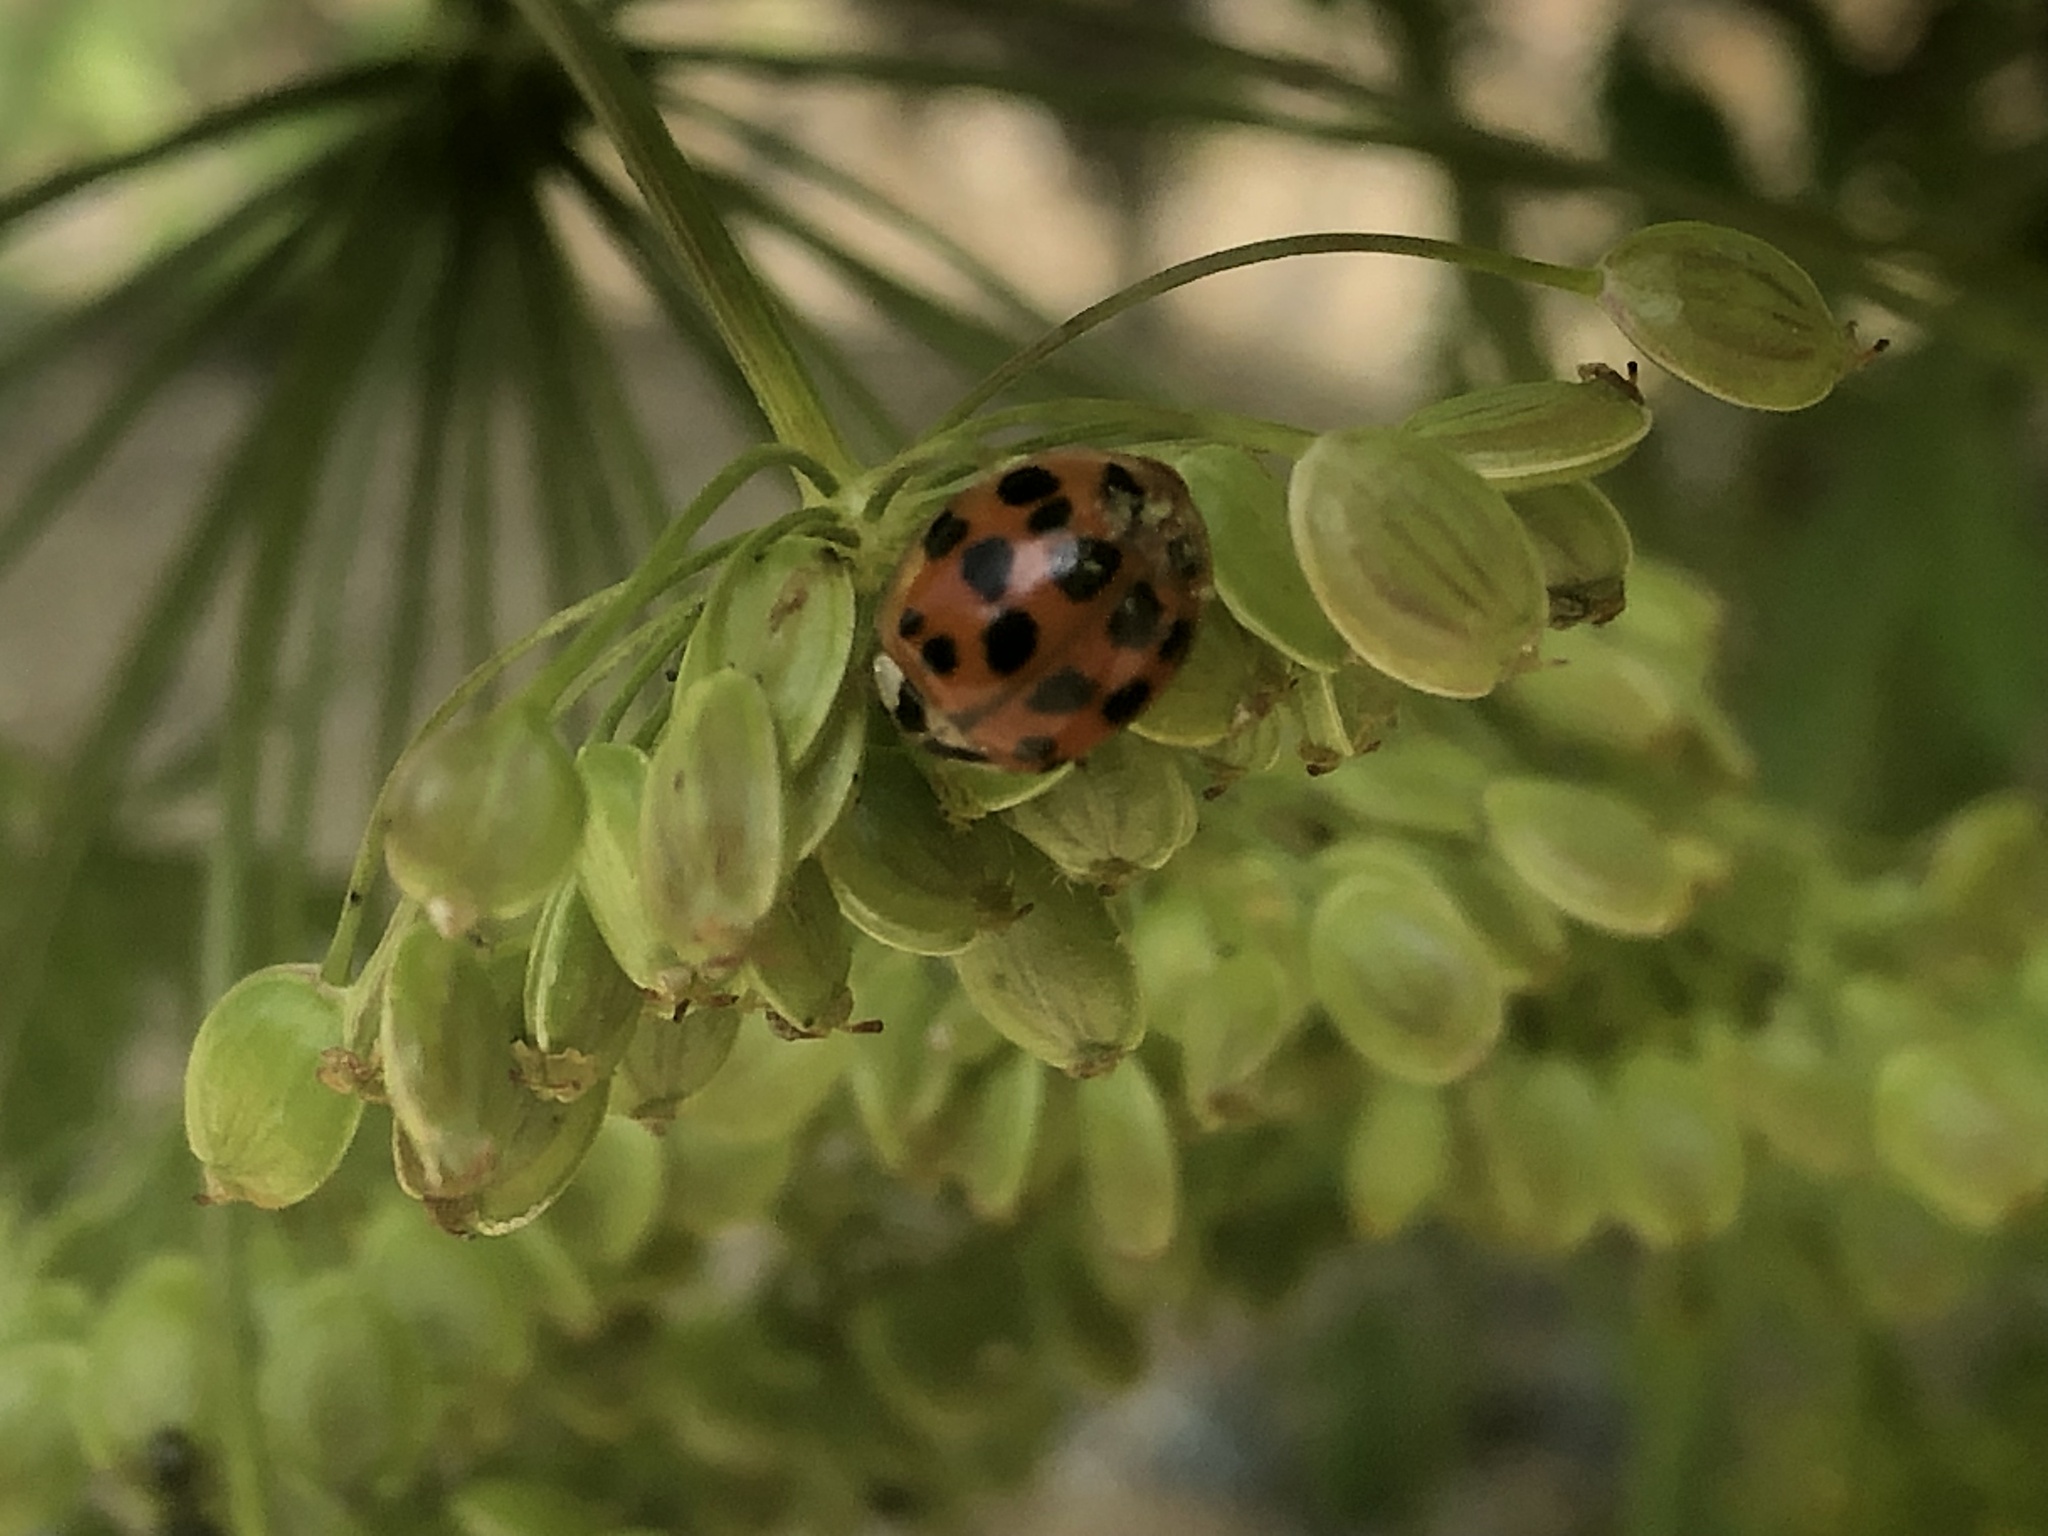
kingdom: Animalia
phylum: Arthropoda
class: Insecta
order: Coleoptera
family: Coccinellidae
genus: Harmonia
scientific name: Harmonia axyridis
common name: Harlequin ladybird
